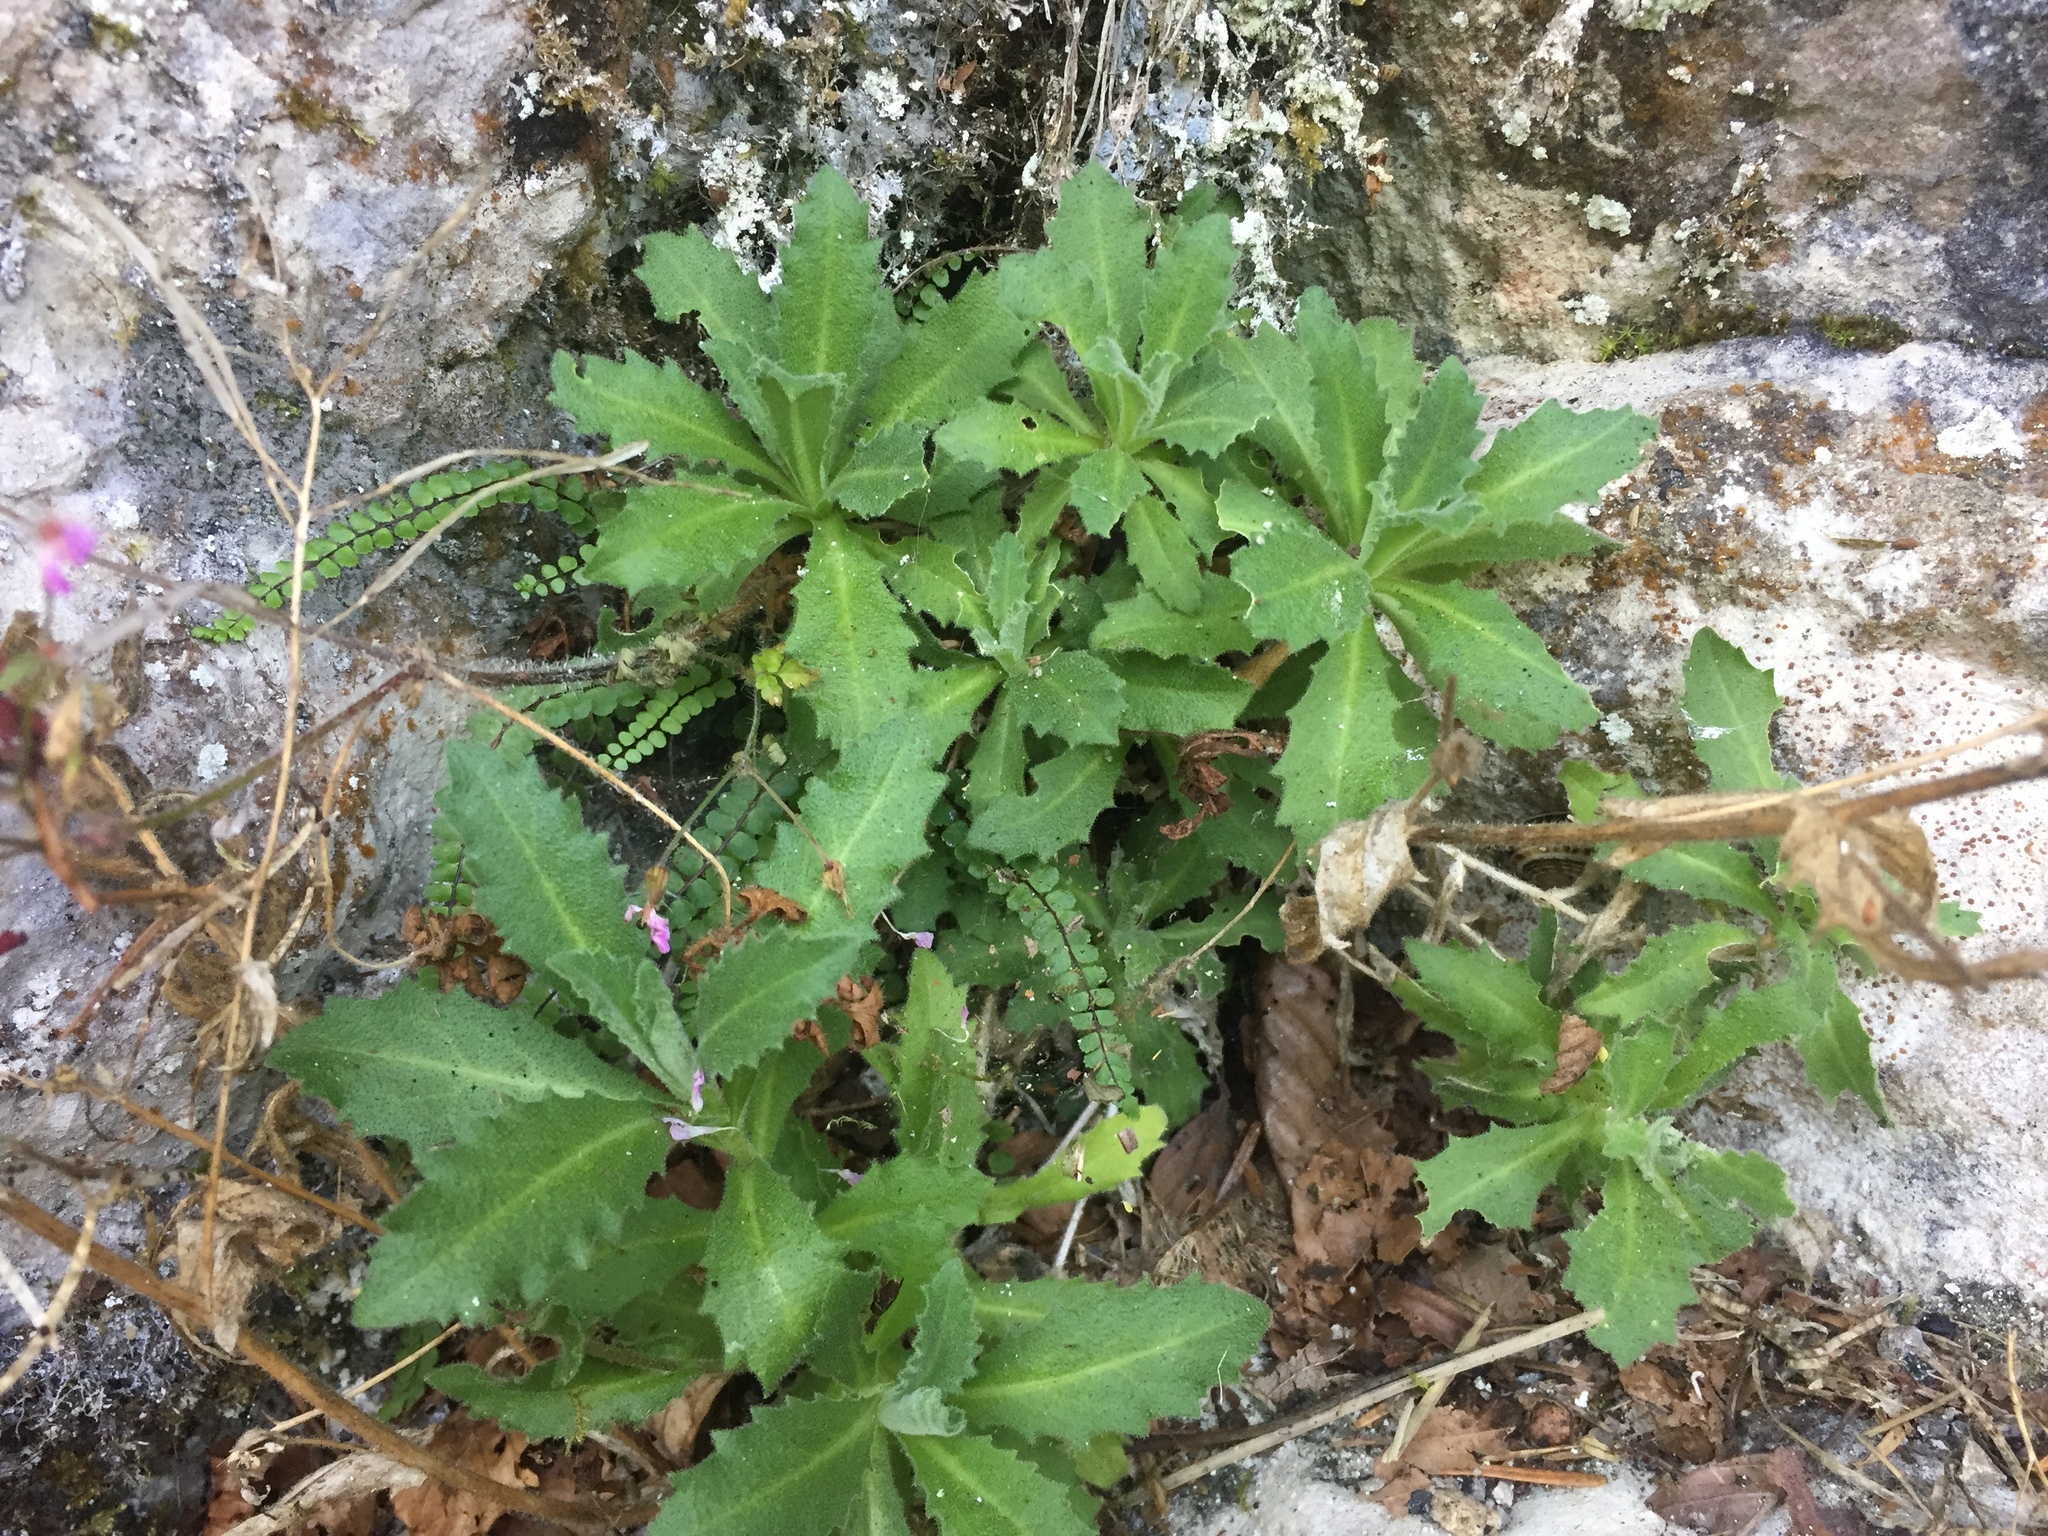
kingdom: Plantae
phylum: Tracheophyta
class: Magnoliopsida
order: Brassicales
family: Brassicaceae
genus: Arabis
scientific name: Arabis alpina
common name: Alpine rock-cress
